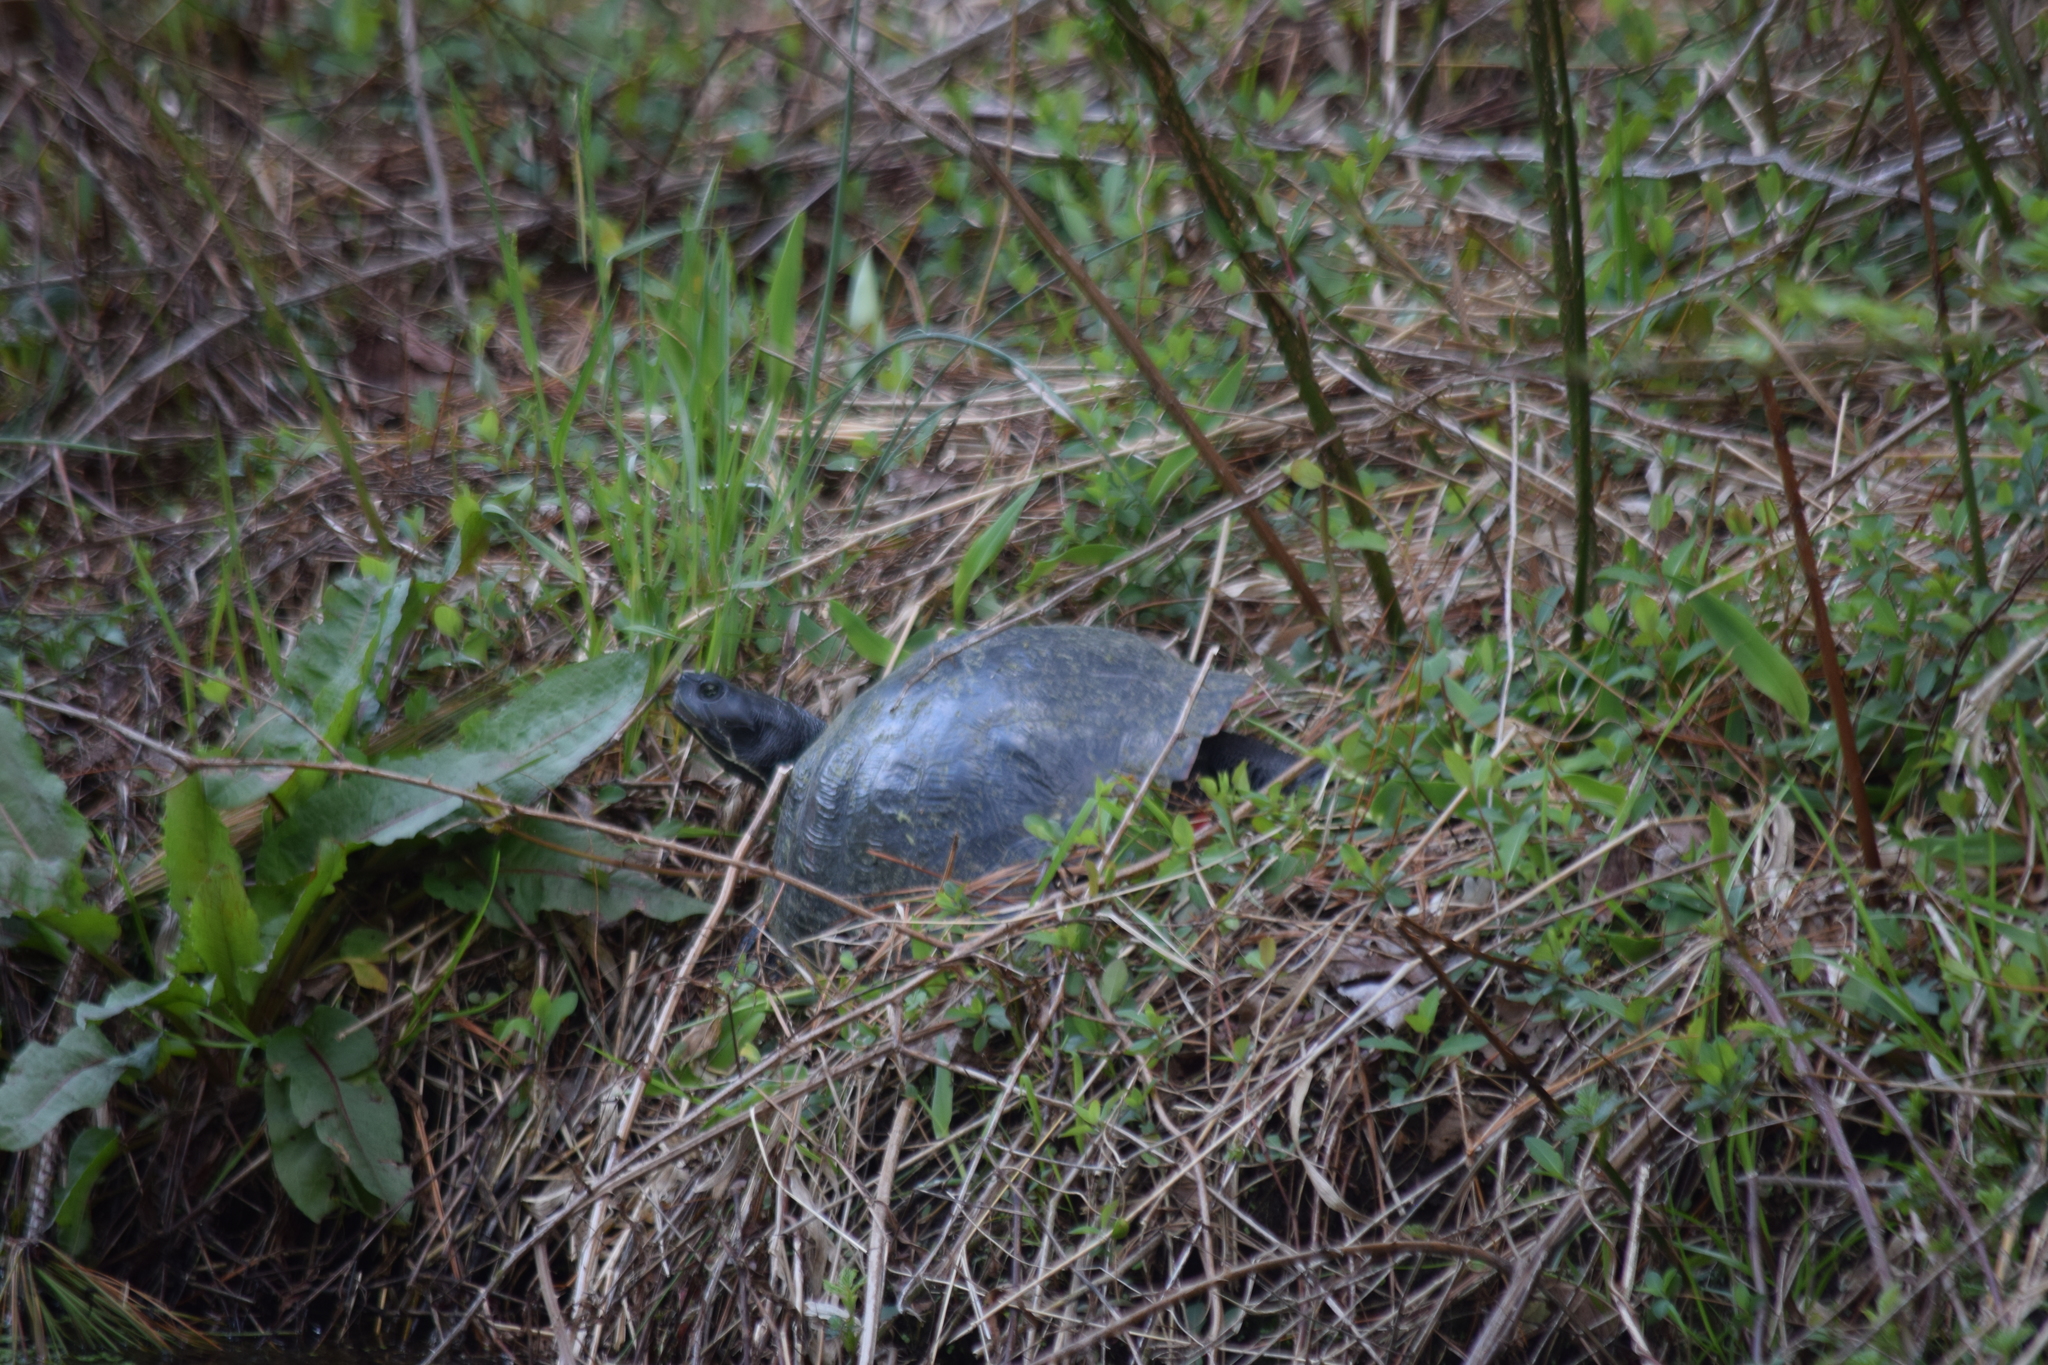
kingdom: Animalia
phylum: Chordata
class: Testudines
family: Emydidae
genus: Pseudemys
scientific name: Pseudemys rubriventris
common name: American red-bellied turtle
